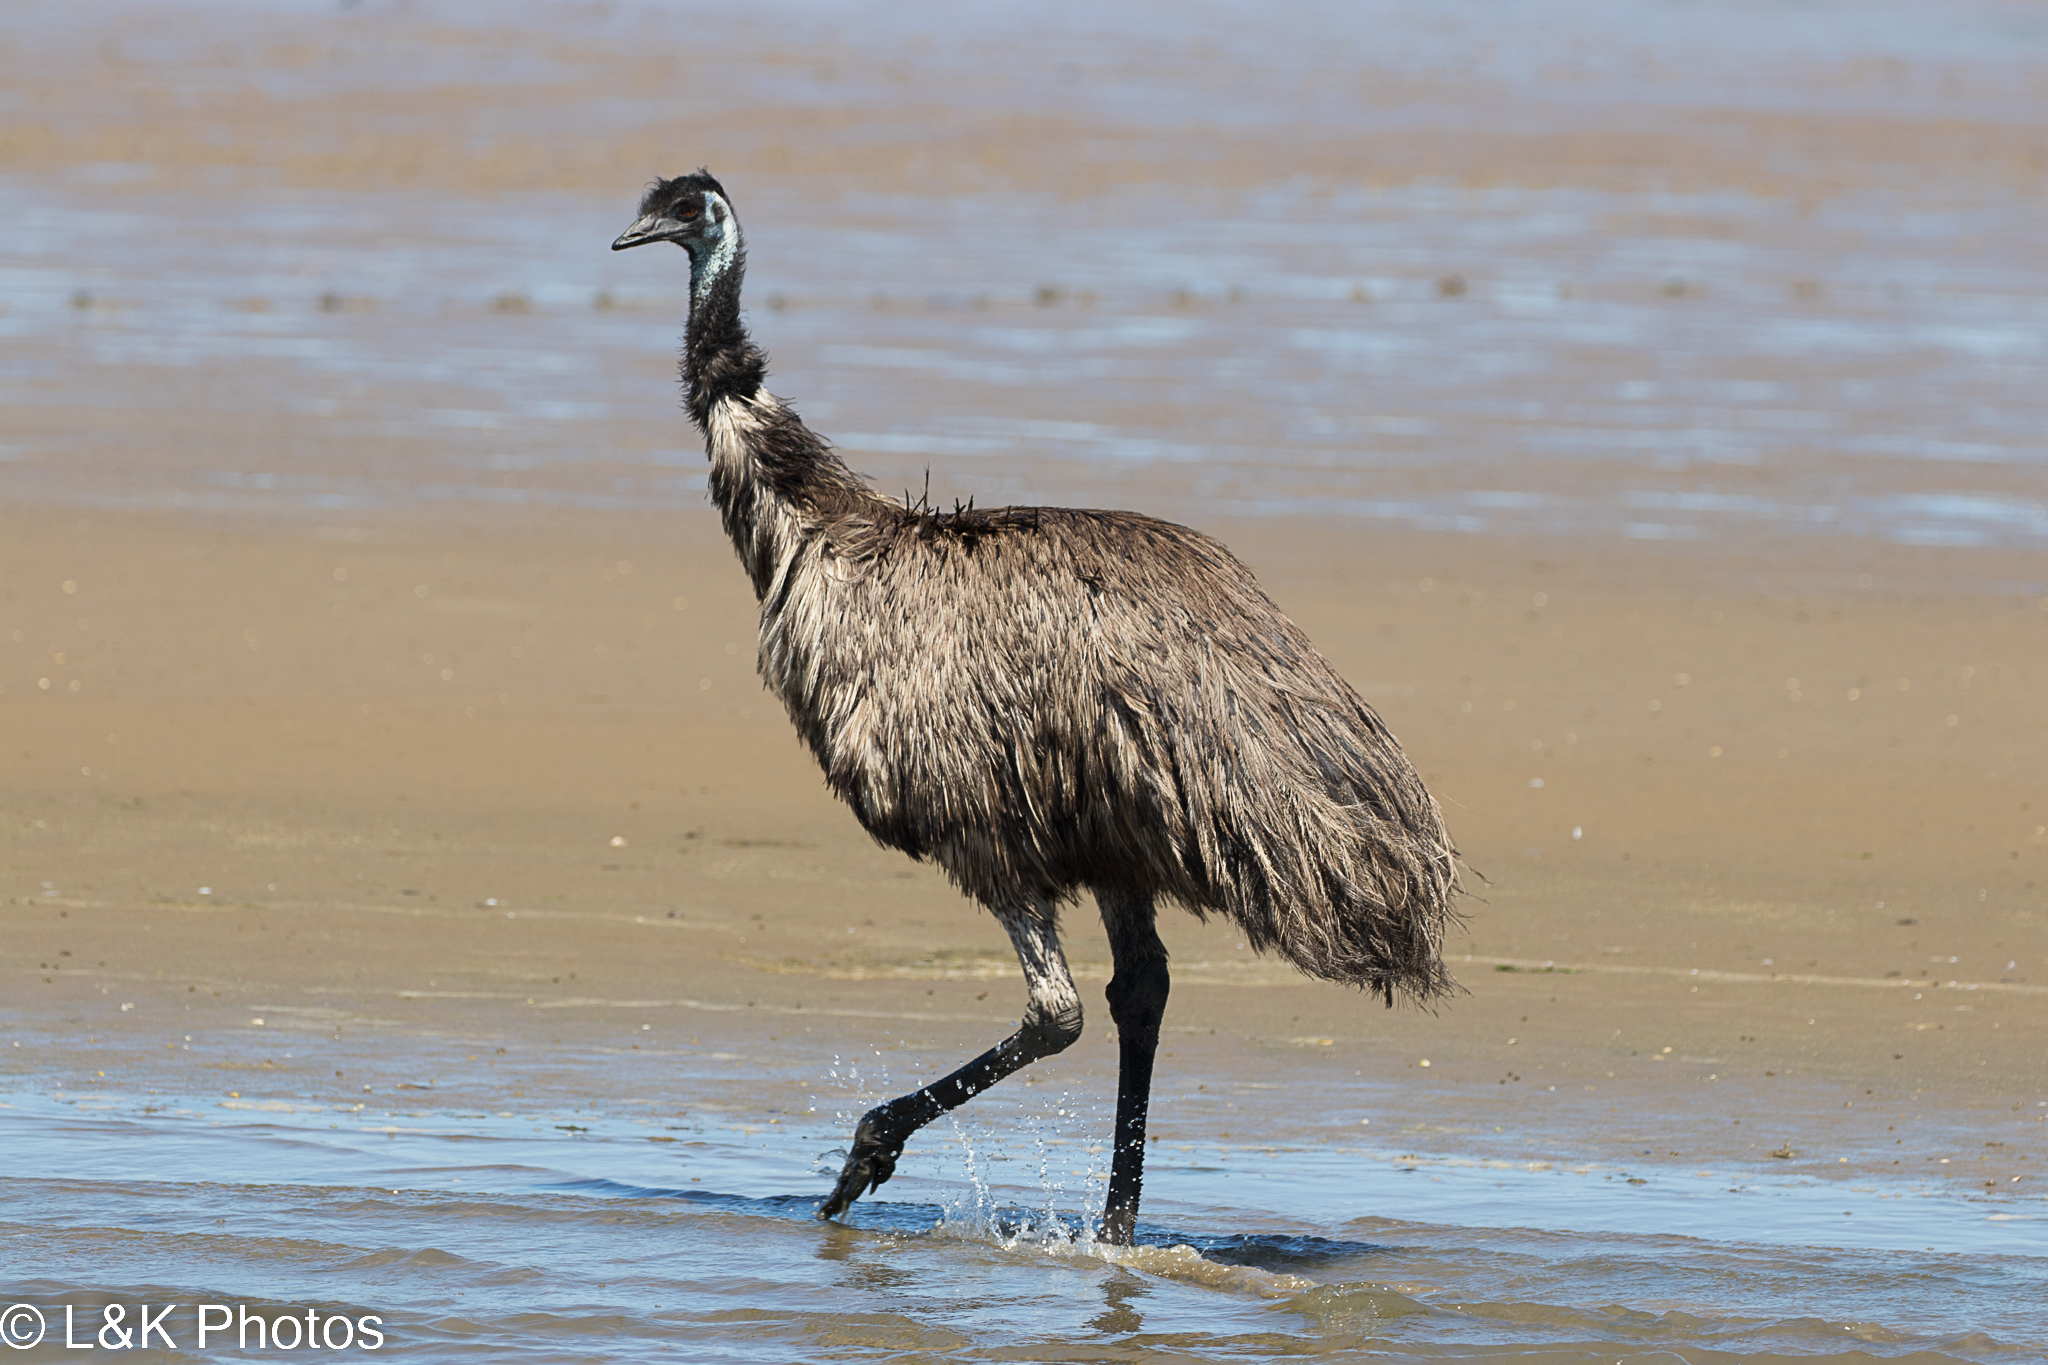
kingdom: Animalia
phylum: Chordata
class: Aves
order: Casuariiformes
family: Dromaiidae
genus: Dromaius
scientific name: Dromaius novaehollandiae
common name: Emu
